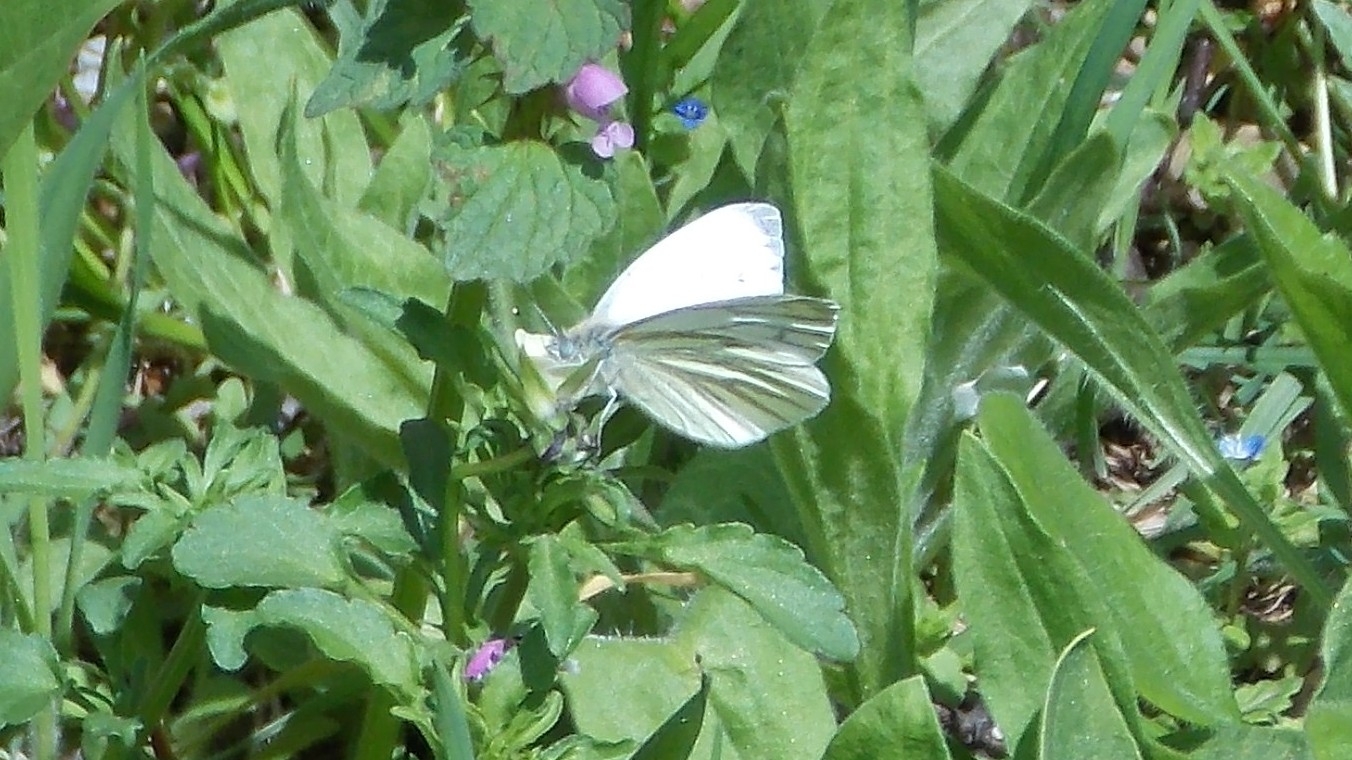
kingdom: Animalia
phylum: Arthropoda
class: Insecta
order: Lepidoptera
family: Pieridae
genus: Pieris
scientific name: Pieris napi
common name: Green-veined white
